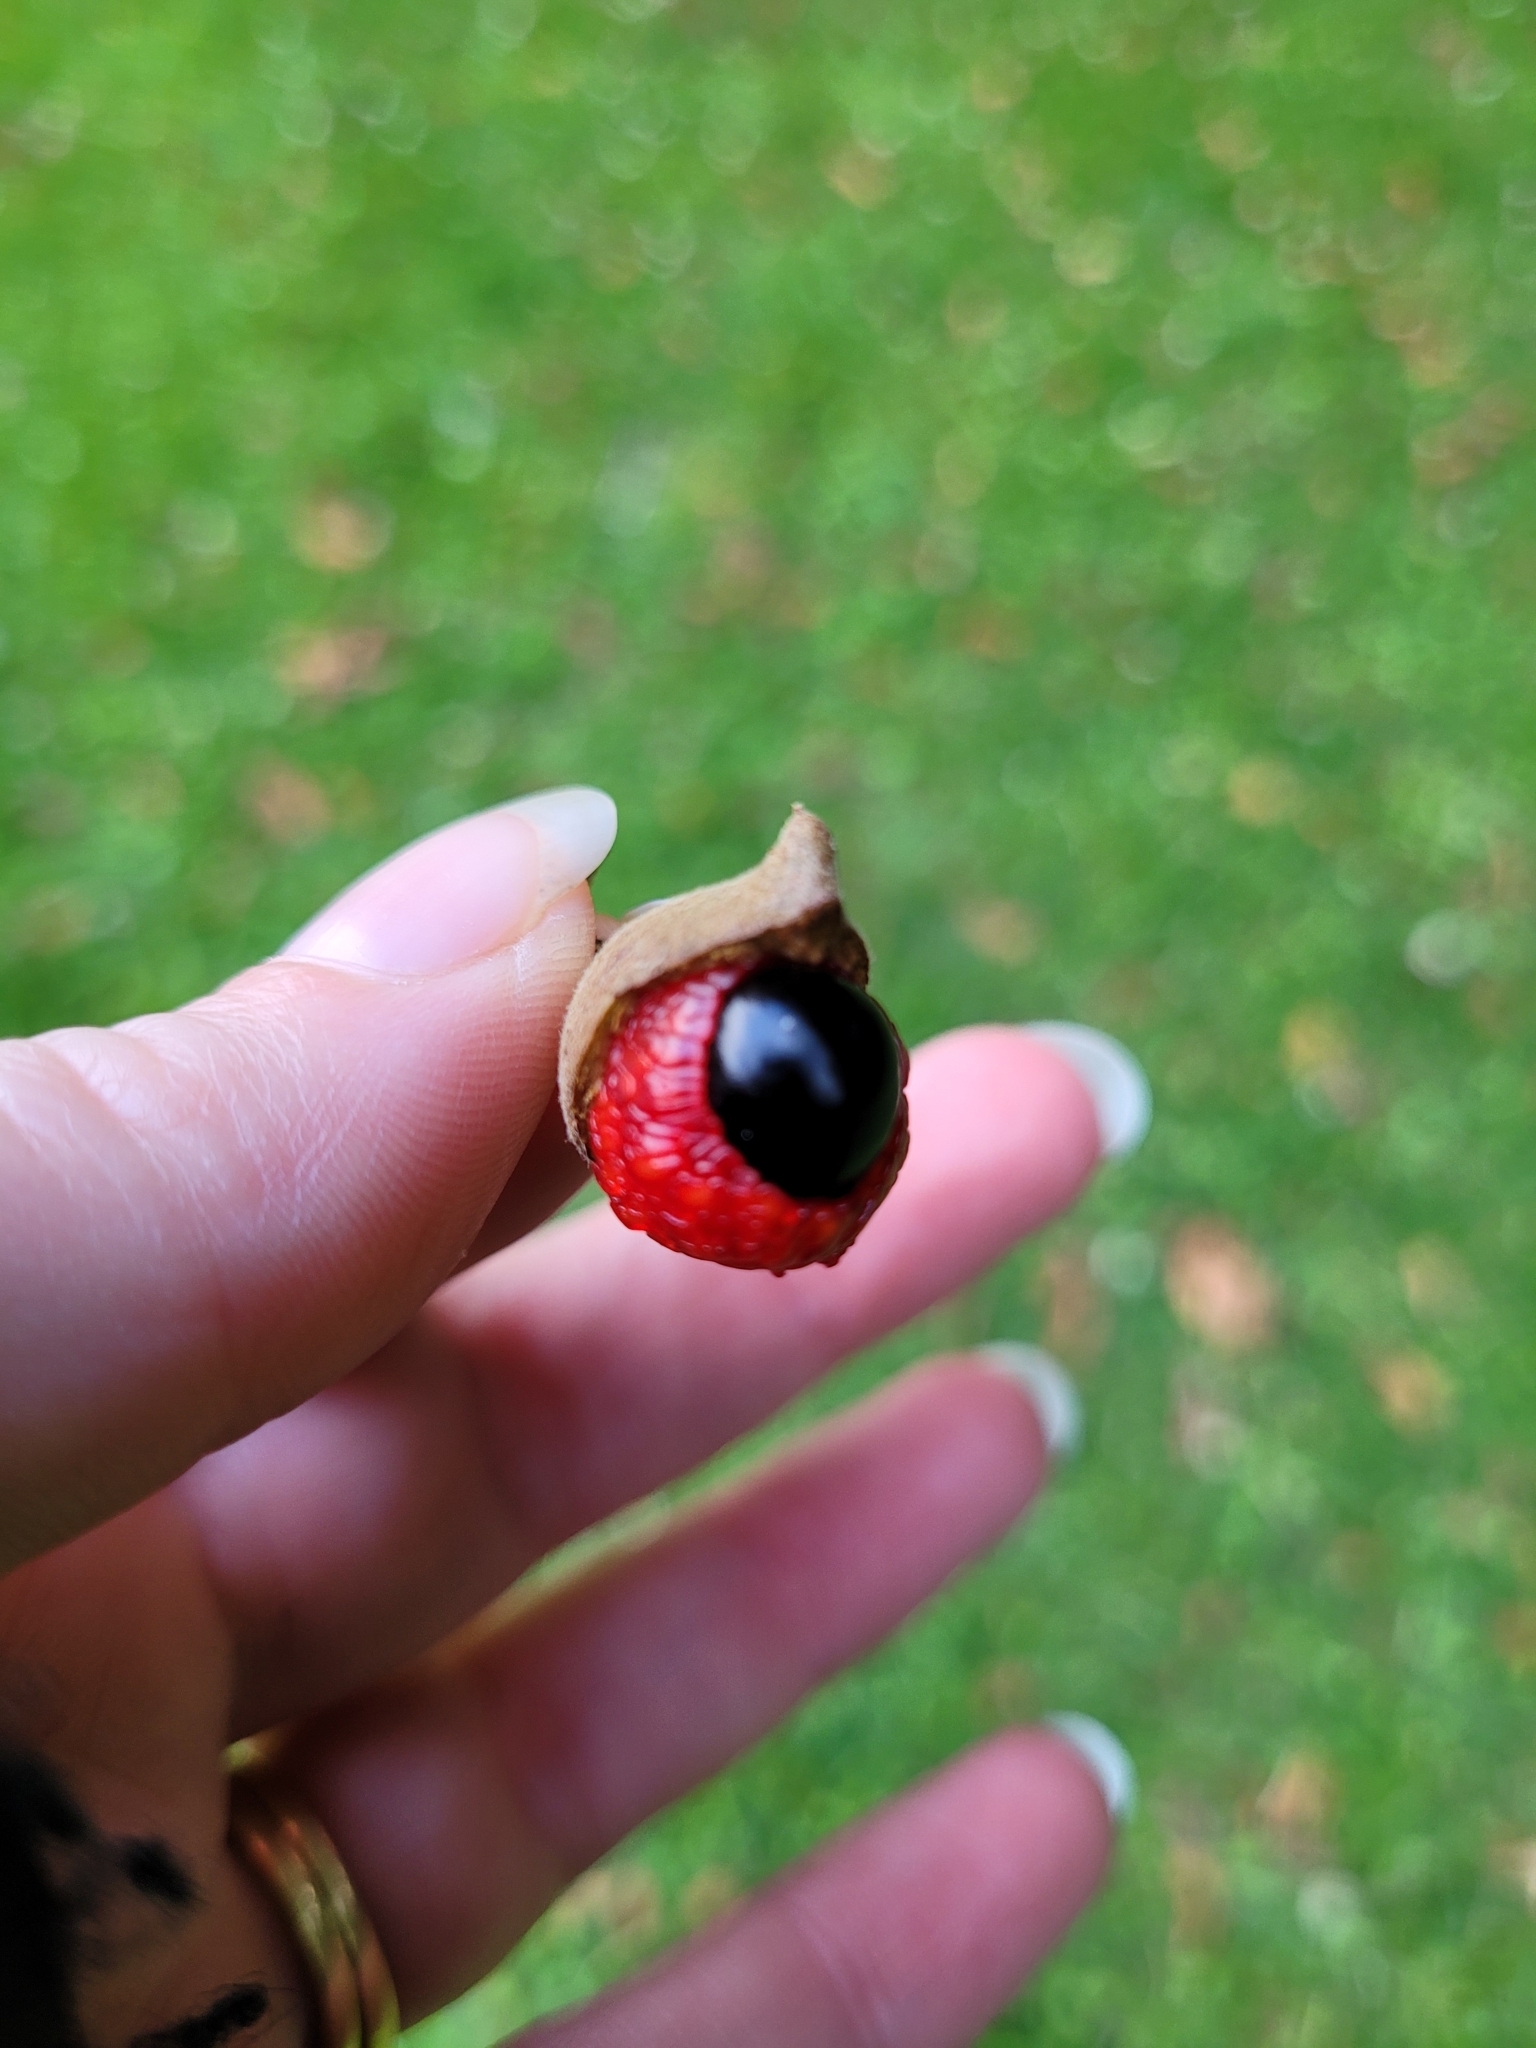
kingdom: Plantae
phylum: Tracheophyta
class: Magnoliopsida
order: Sapindales
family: Sapindaceae
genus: Alectryon
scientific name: Alectryon excelsus
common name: Three kings titoki
